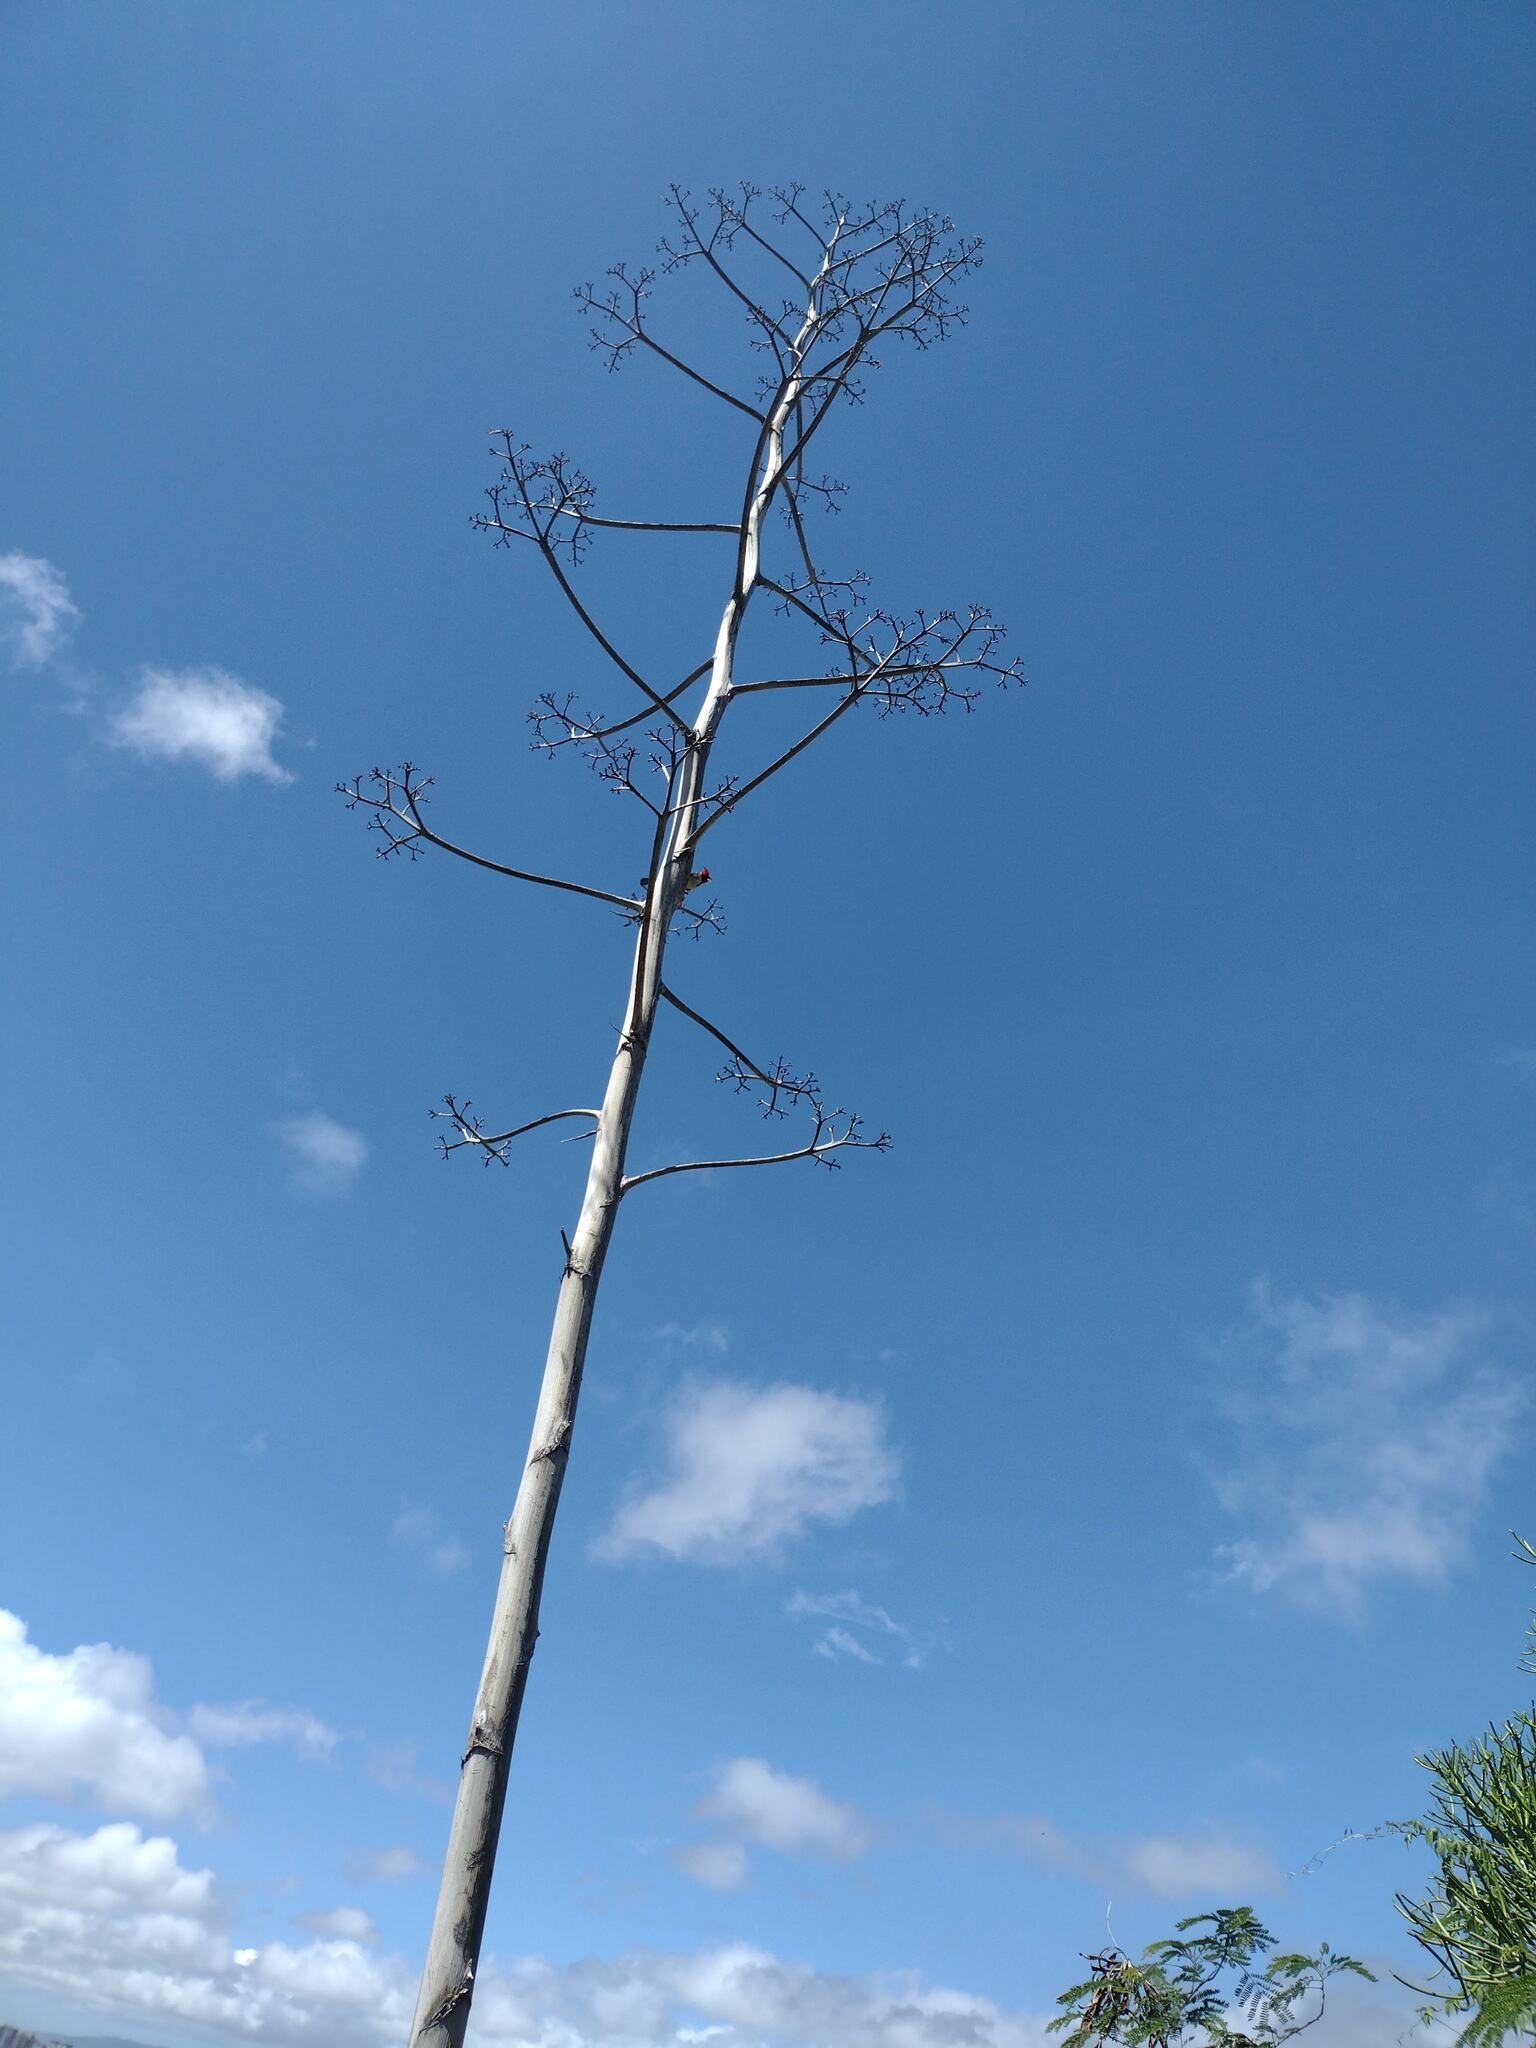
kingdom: Plantae
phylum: Tracheophyta
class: Liliopsida
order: Asparagales
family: Asparagaceae
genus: Agave
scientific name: Agave sisalana
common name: Sisal hemp
